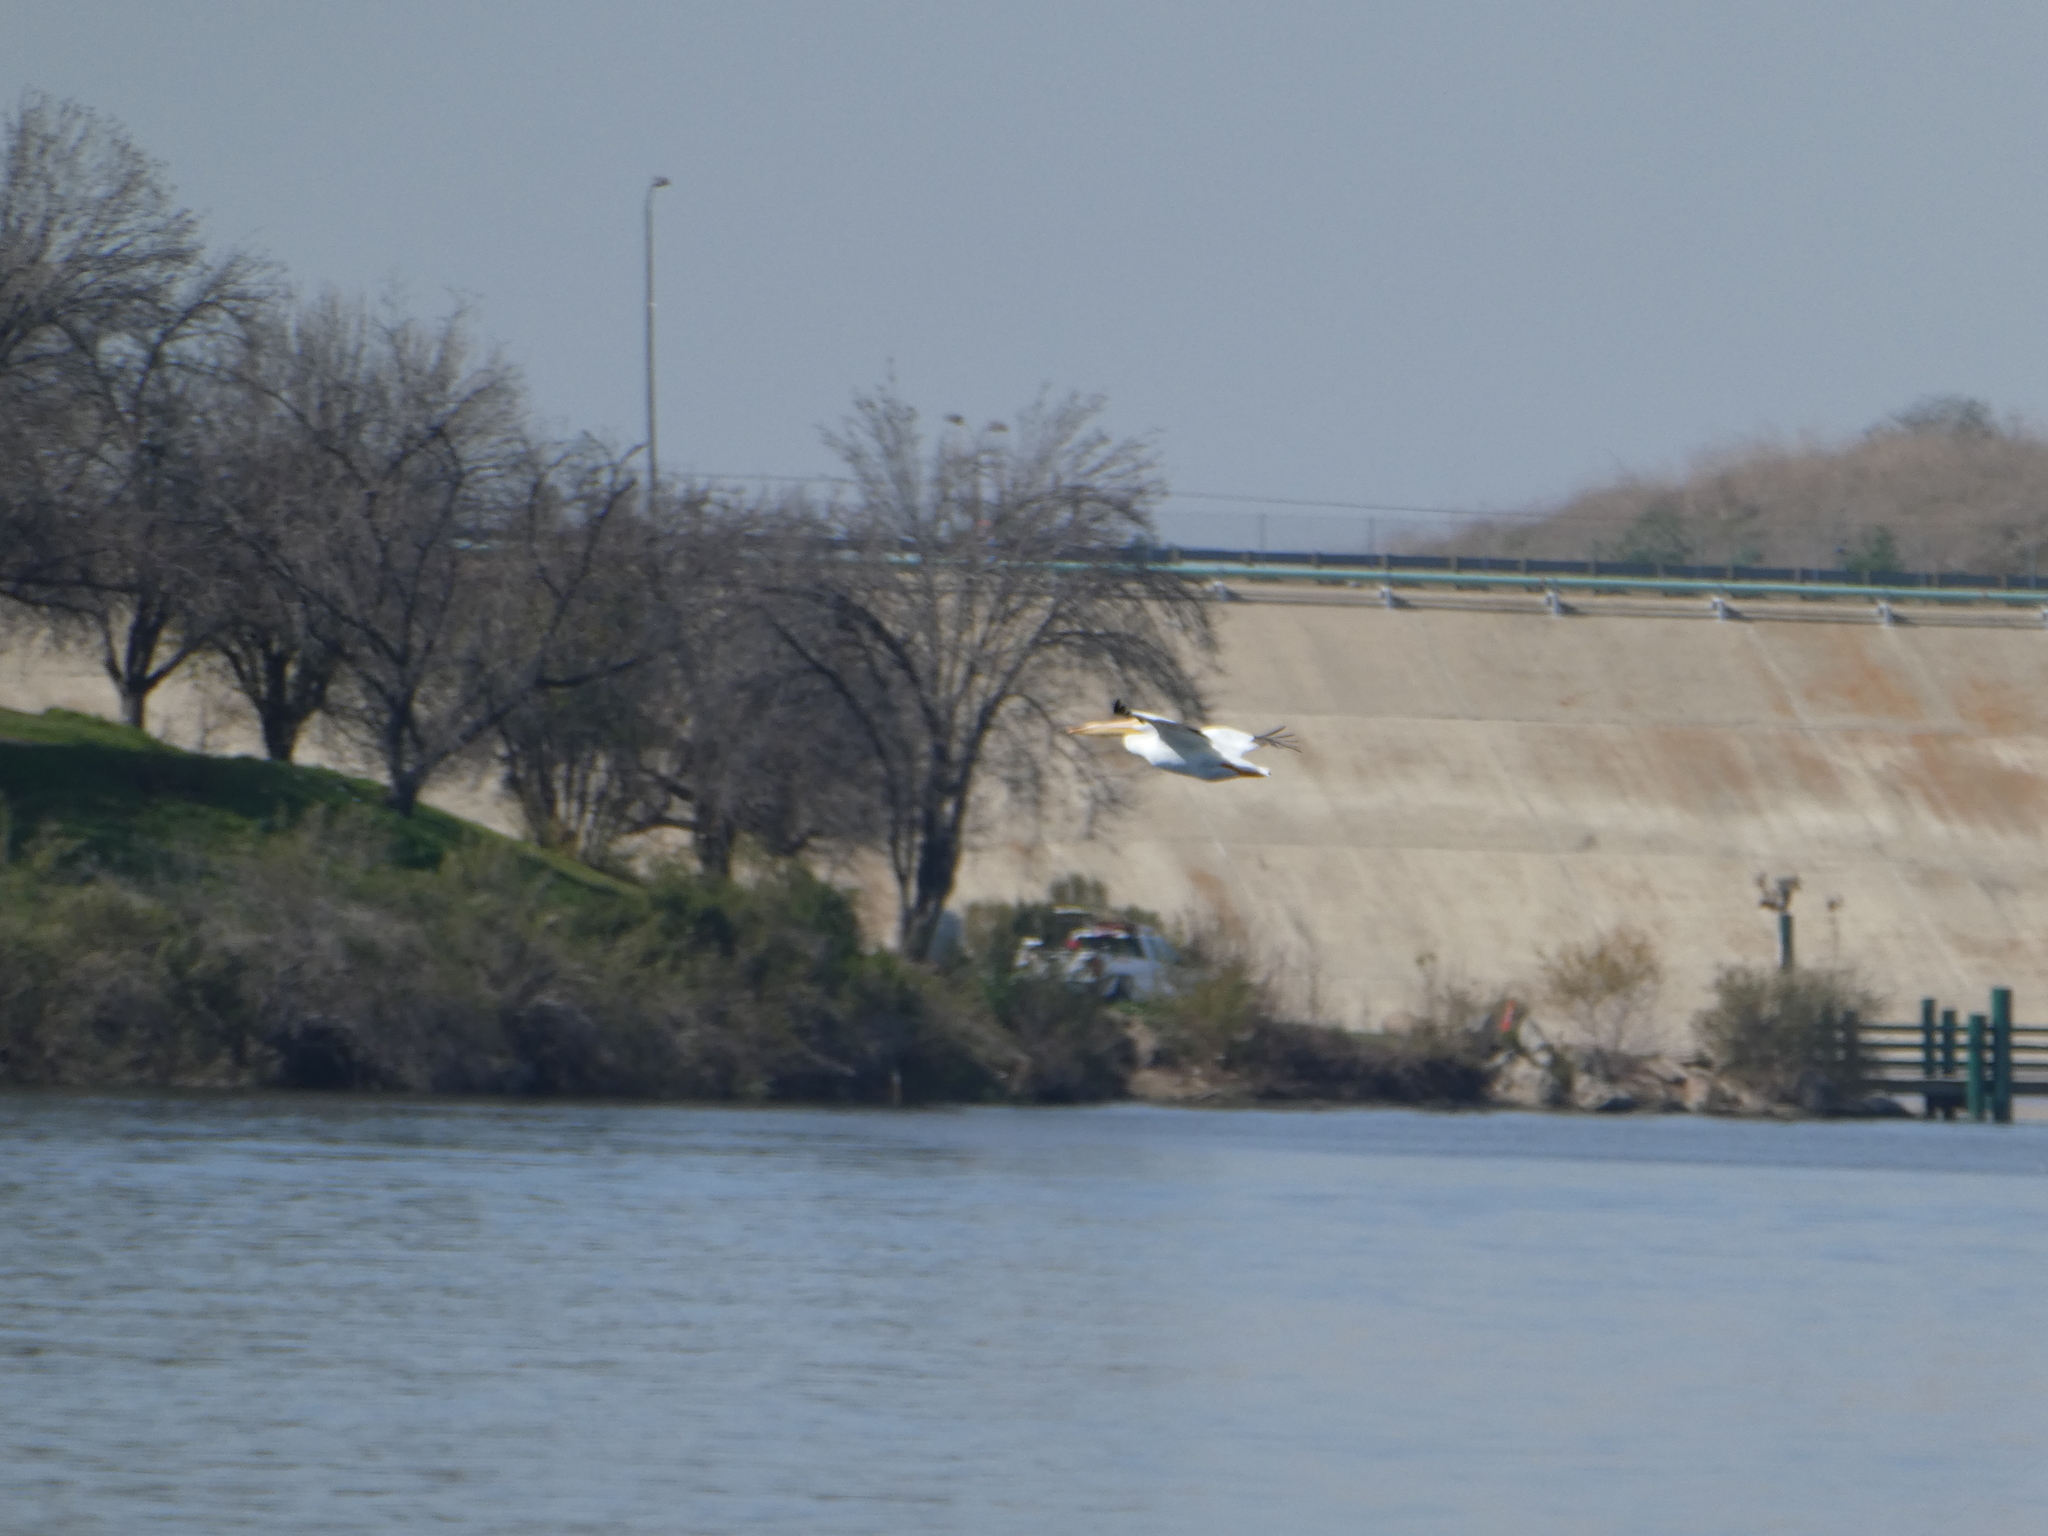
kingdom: Animalia
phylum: Chordata
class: Aves
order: Pelecaniformes
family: Pelecanidae
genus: Pelecanus
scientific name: Pelecanus erythrorhynchos
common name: American white pelican
